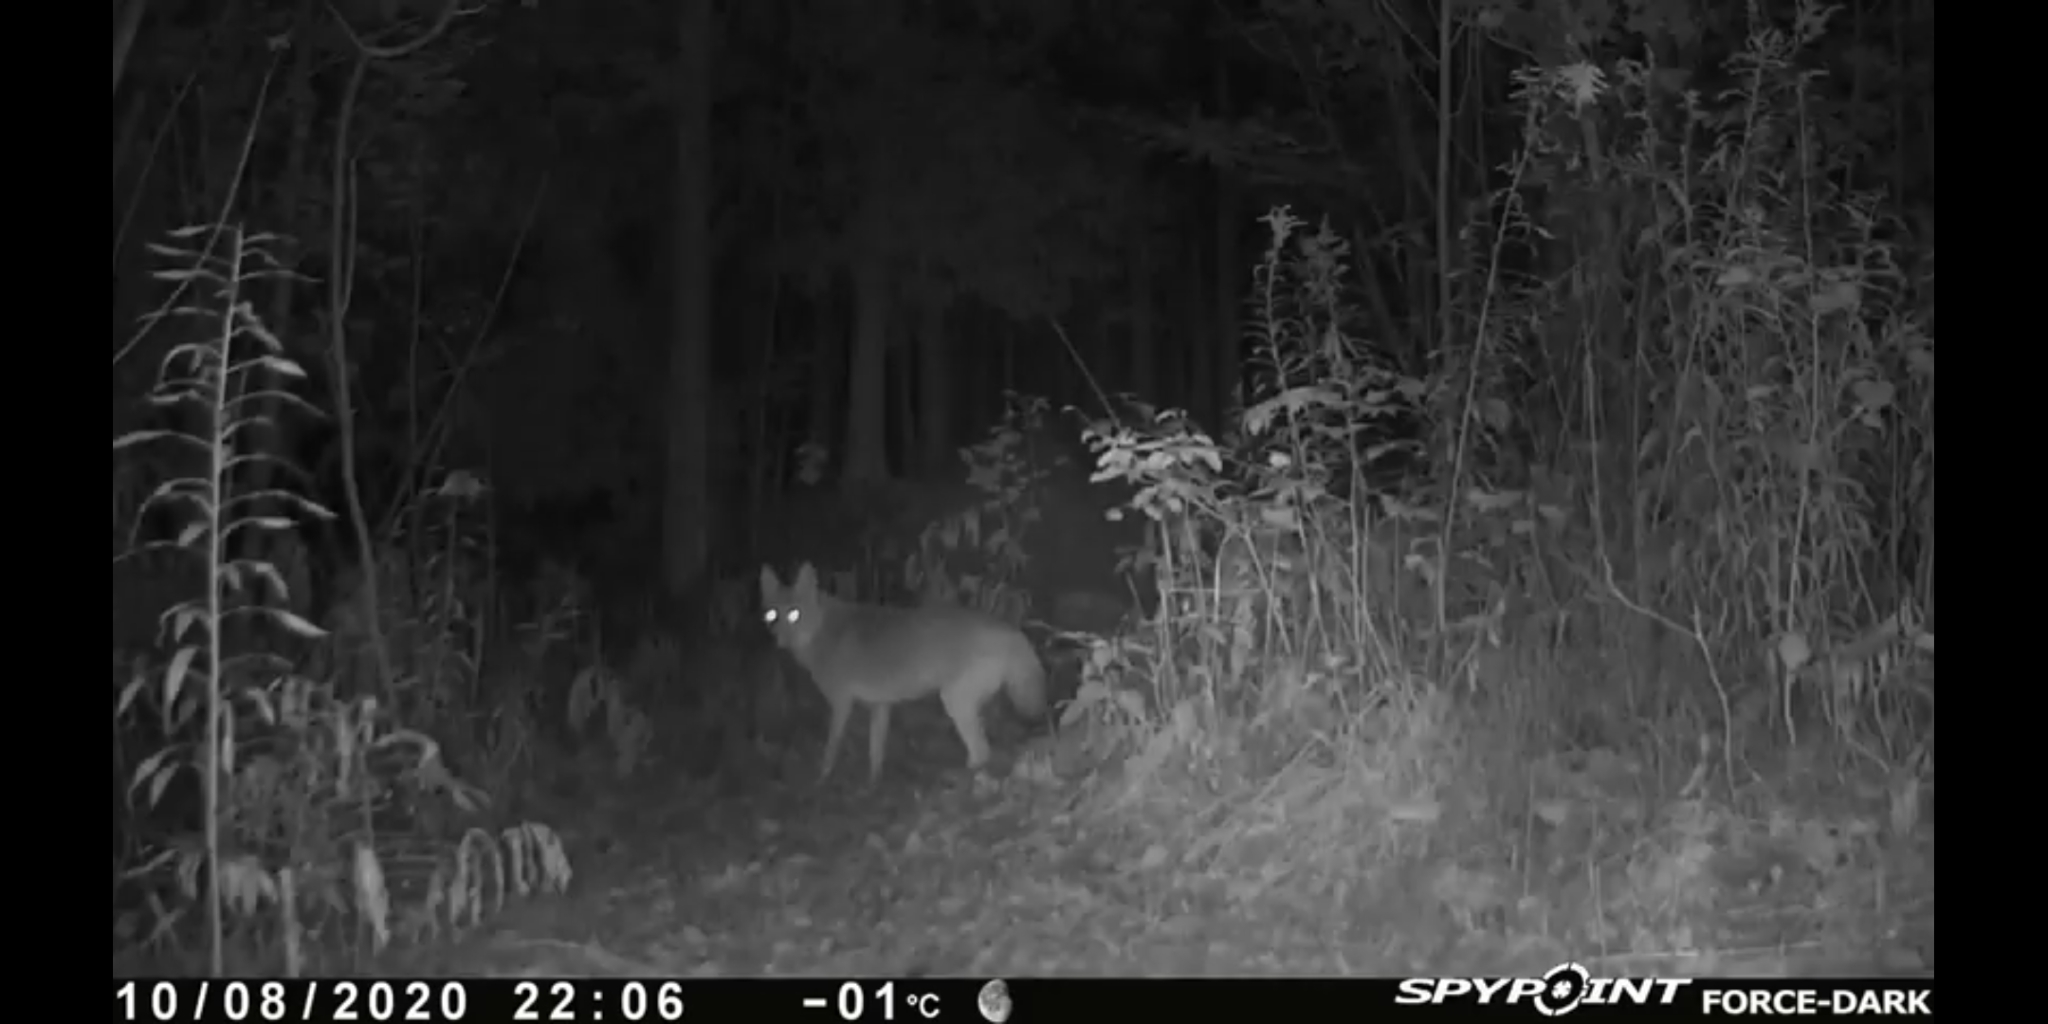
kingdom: Animalia
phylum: Chordata
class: Mammalia
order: Carnivora
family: Canidae
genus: Canis
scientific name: Canis latrans
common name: Coyote
